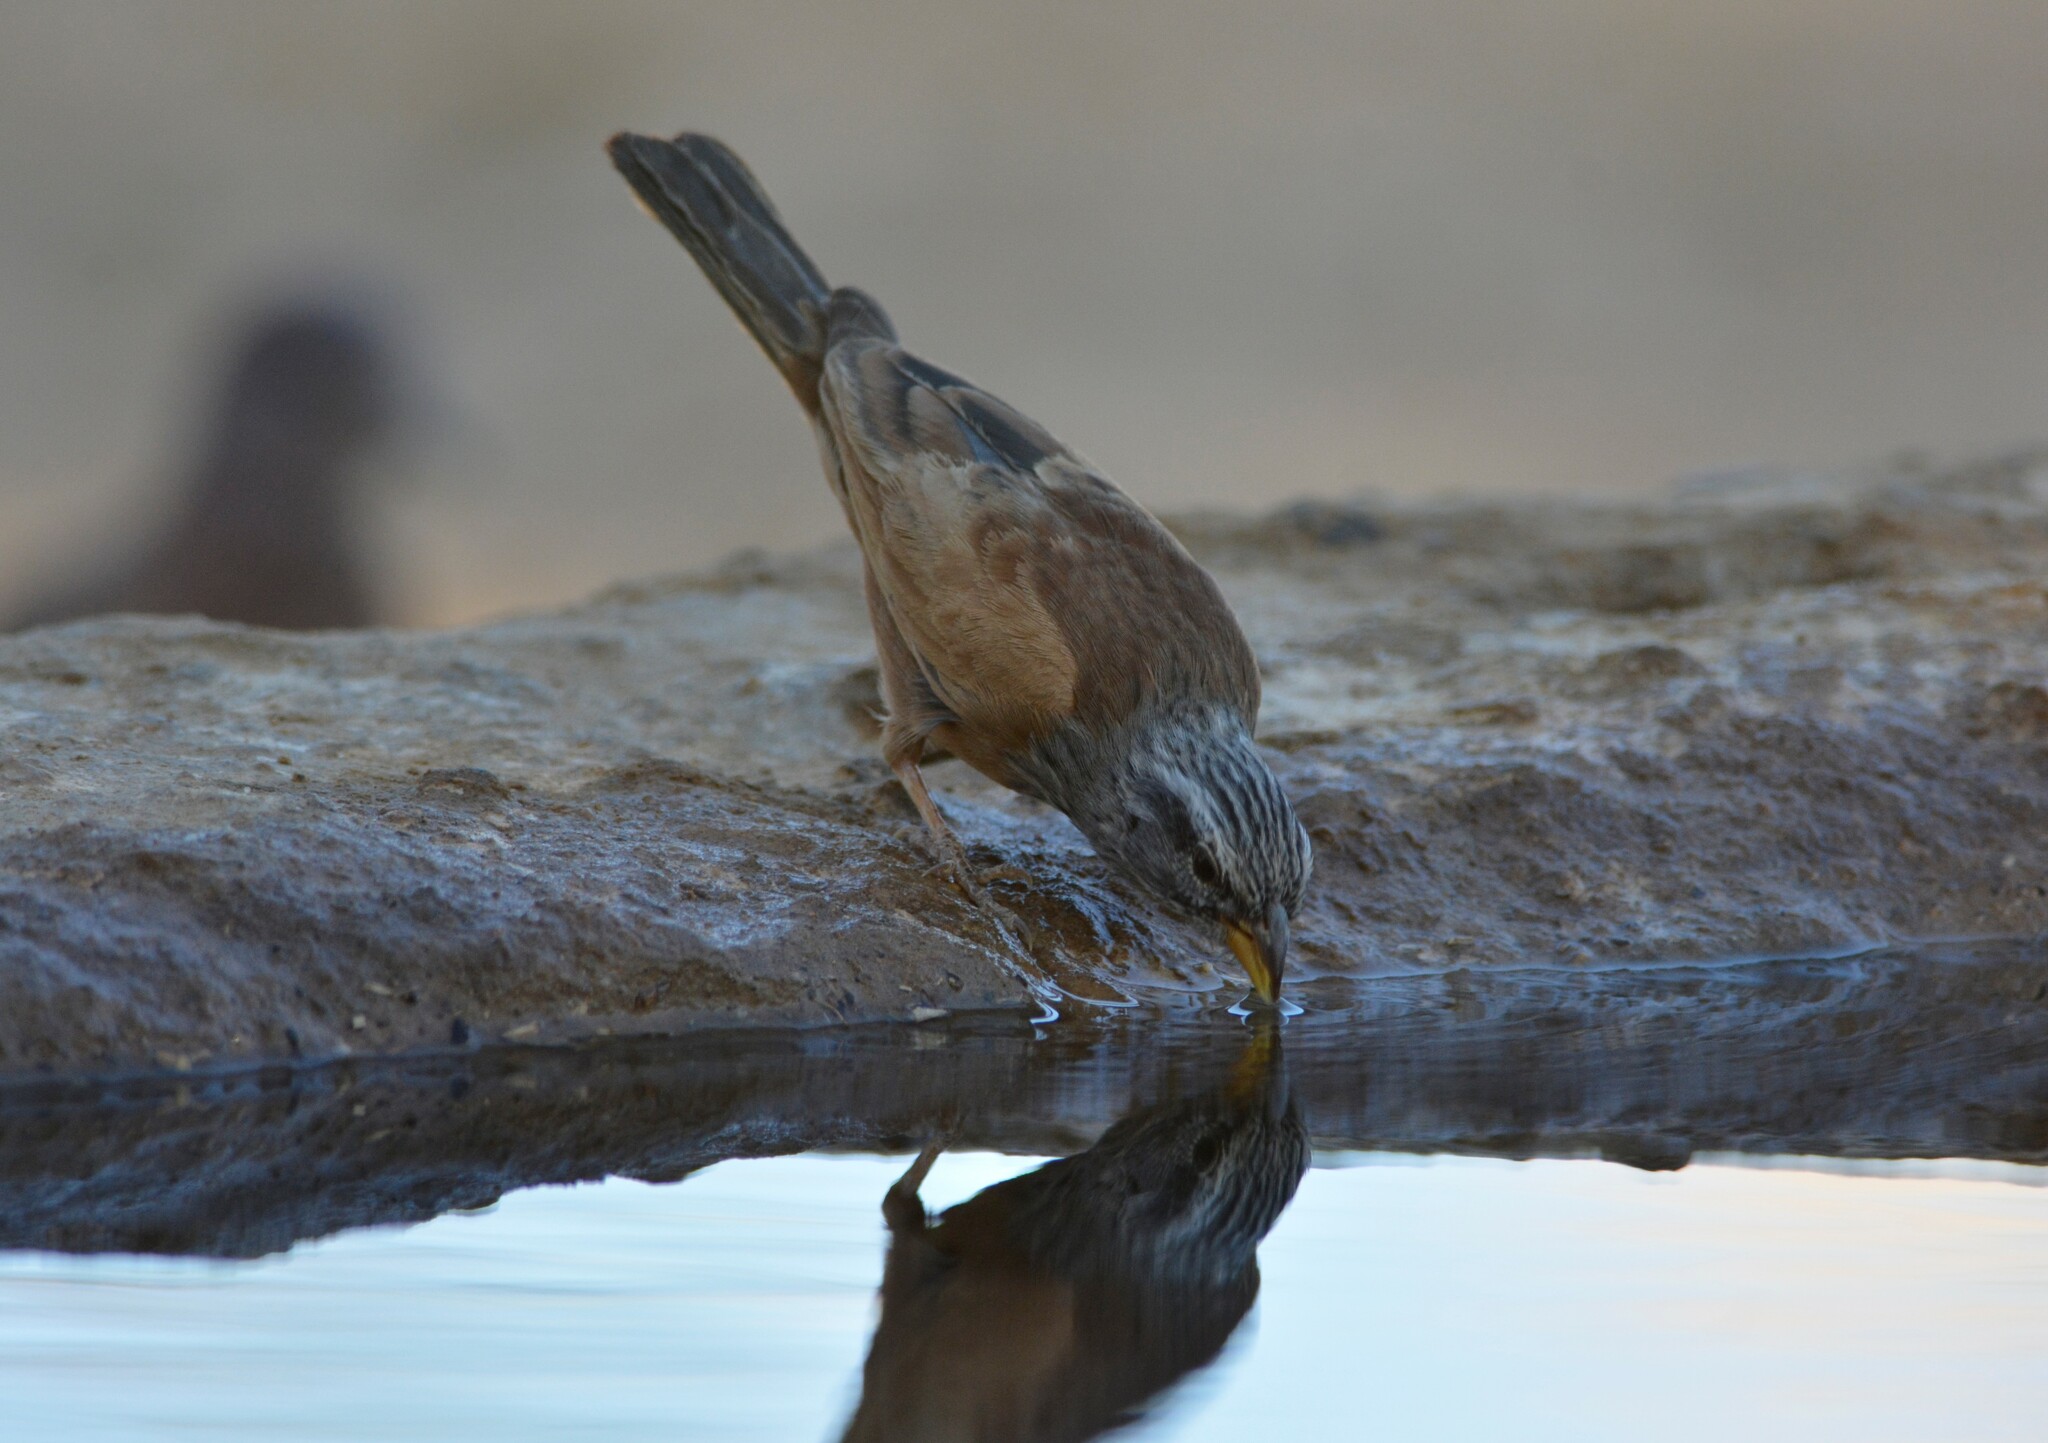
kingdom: Animalia
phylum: Chordata
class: Aves
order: Passeriformes
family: Emberizidae
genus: Emberiza
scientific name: Emberiza sahari
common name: House bunting
